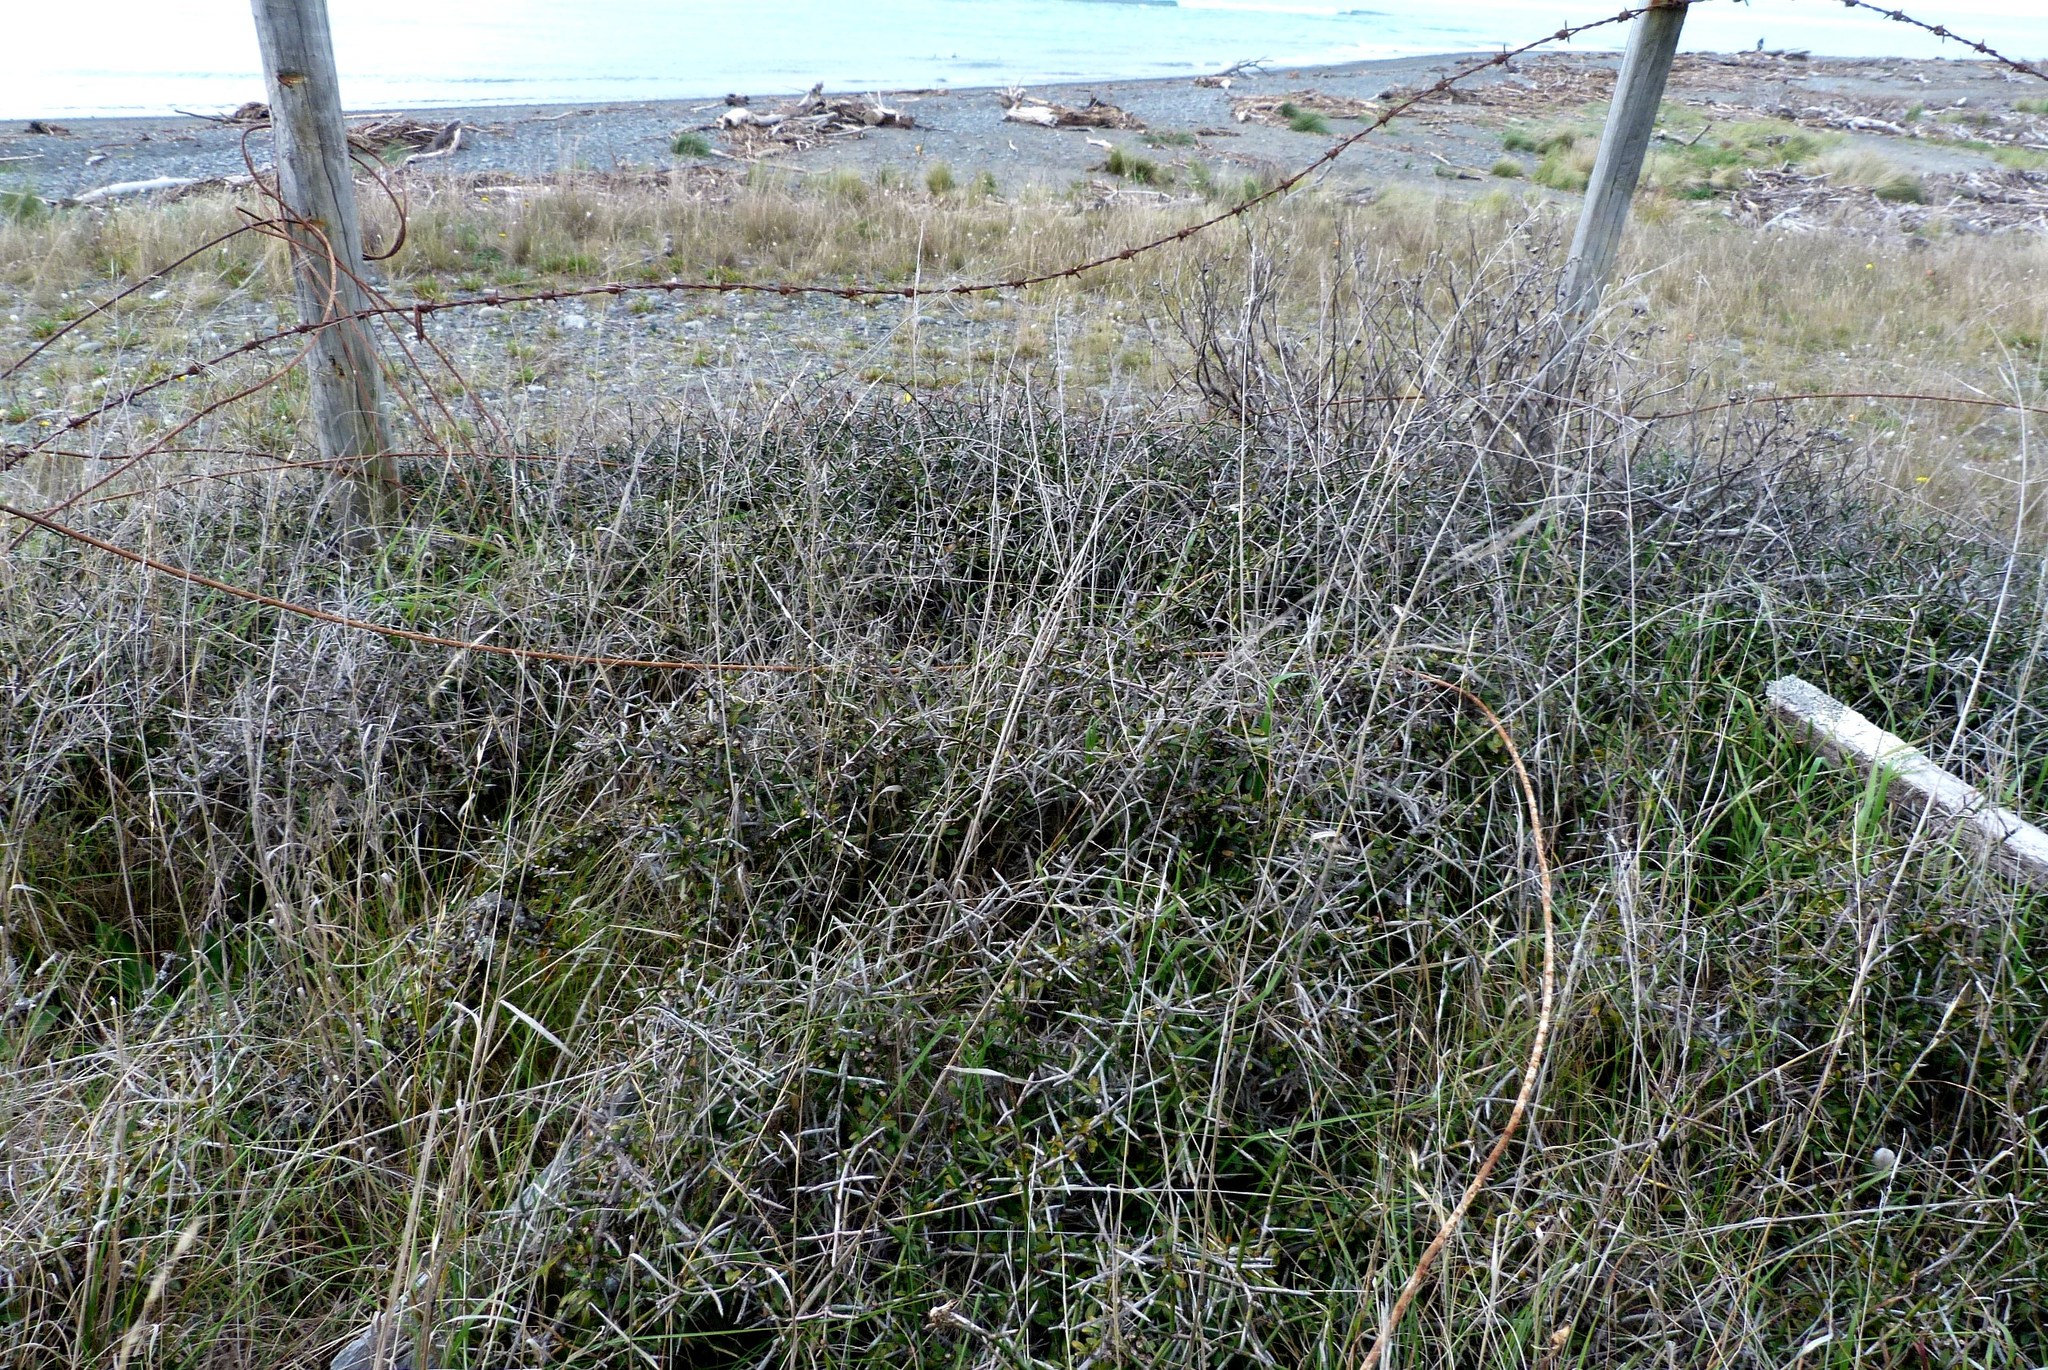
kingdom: Plantae
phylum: Tracheophyta
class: Magnoliopsida
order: Rosales
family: Rhamnaceae
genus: Discaria
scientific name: Discaria toumatou
